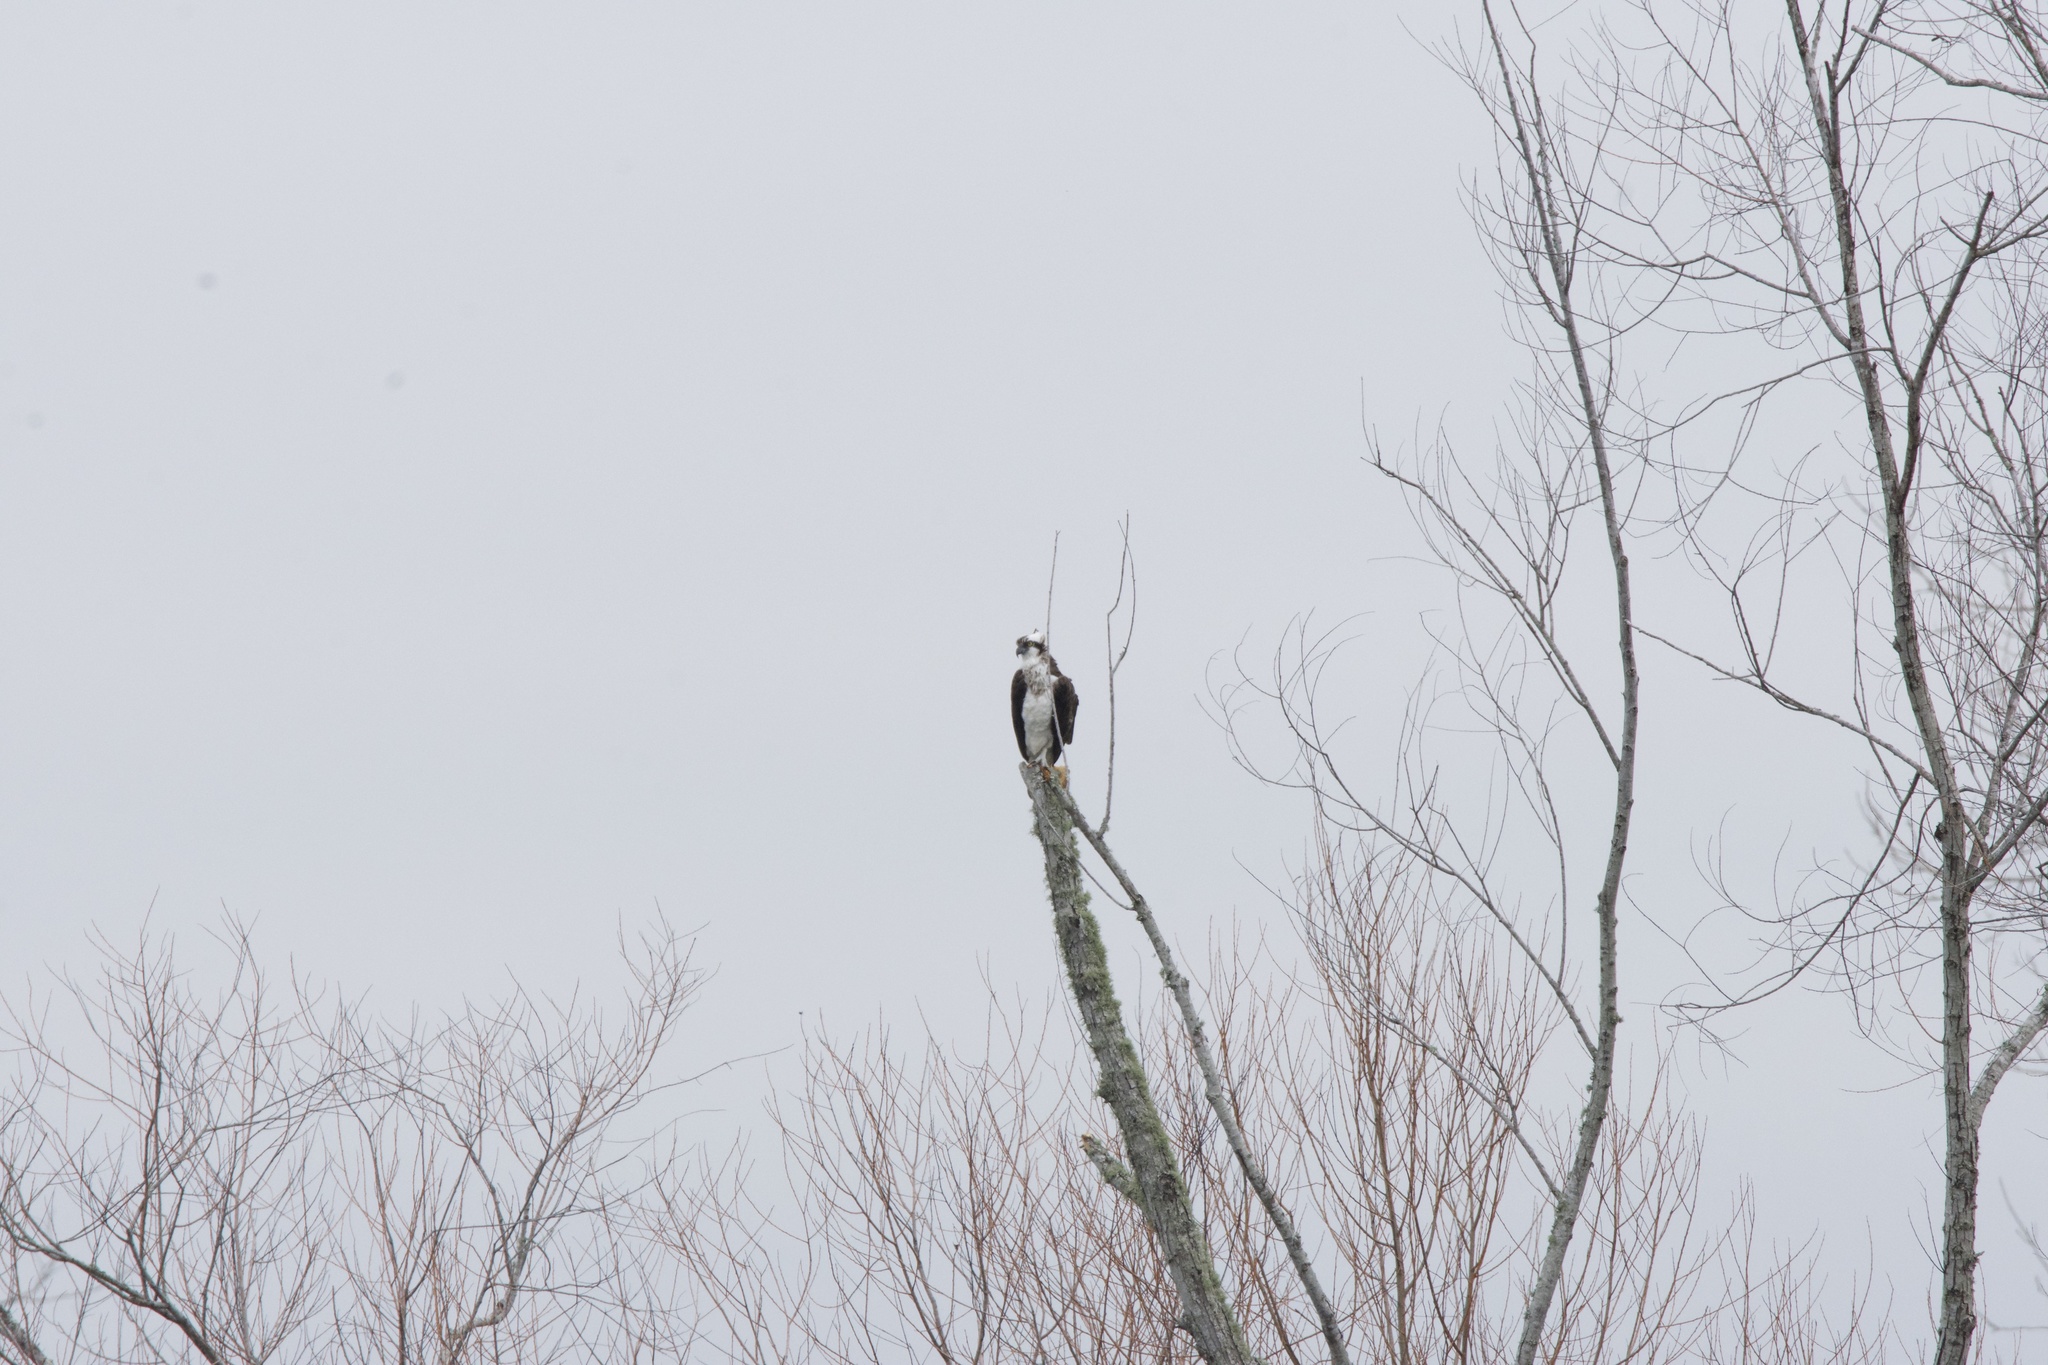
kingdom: Animalia
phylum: Chordata
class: Aves
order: Accipitriformes
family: Pandionidae
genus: Pandion
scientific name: Pandion haliaetus
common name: Osprey
